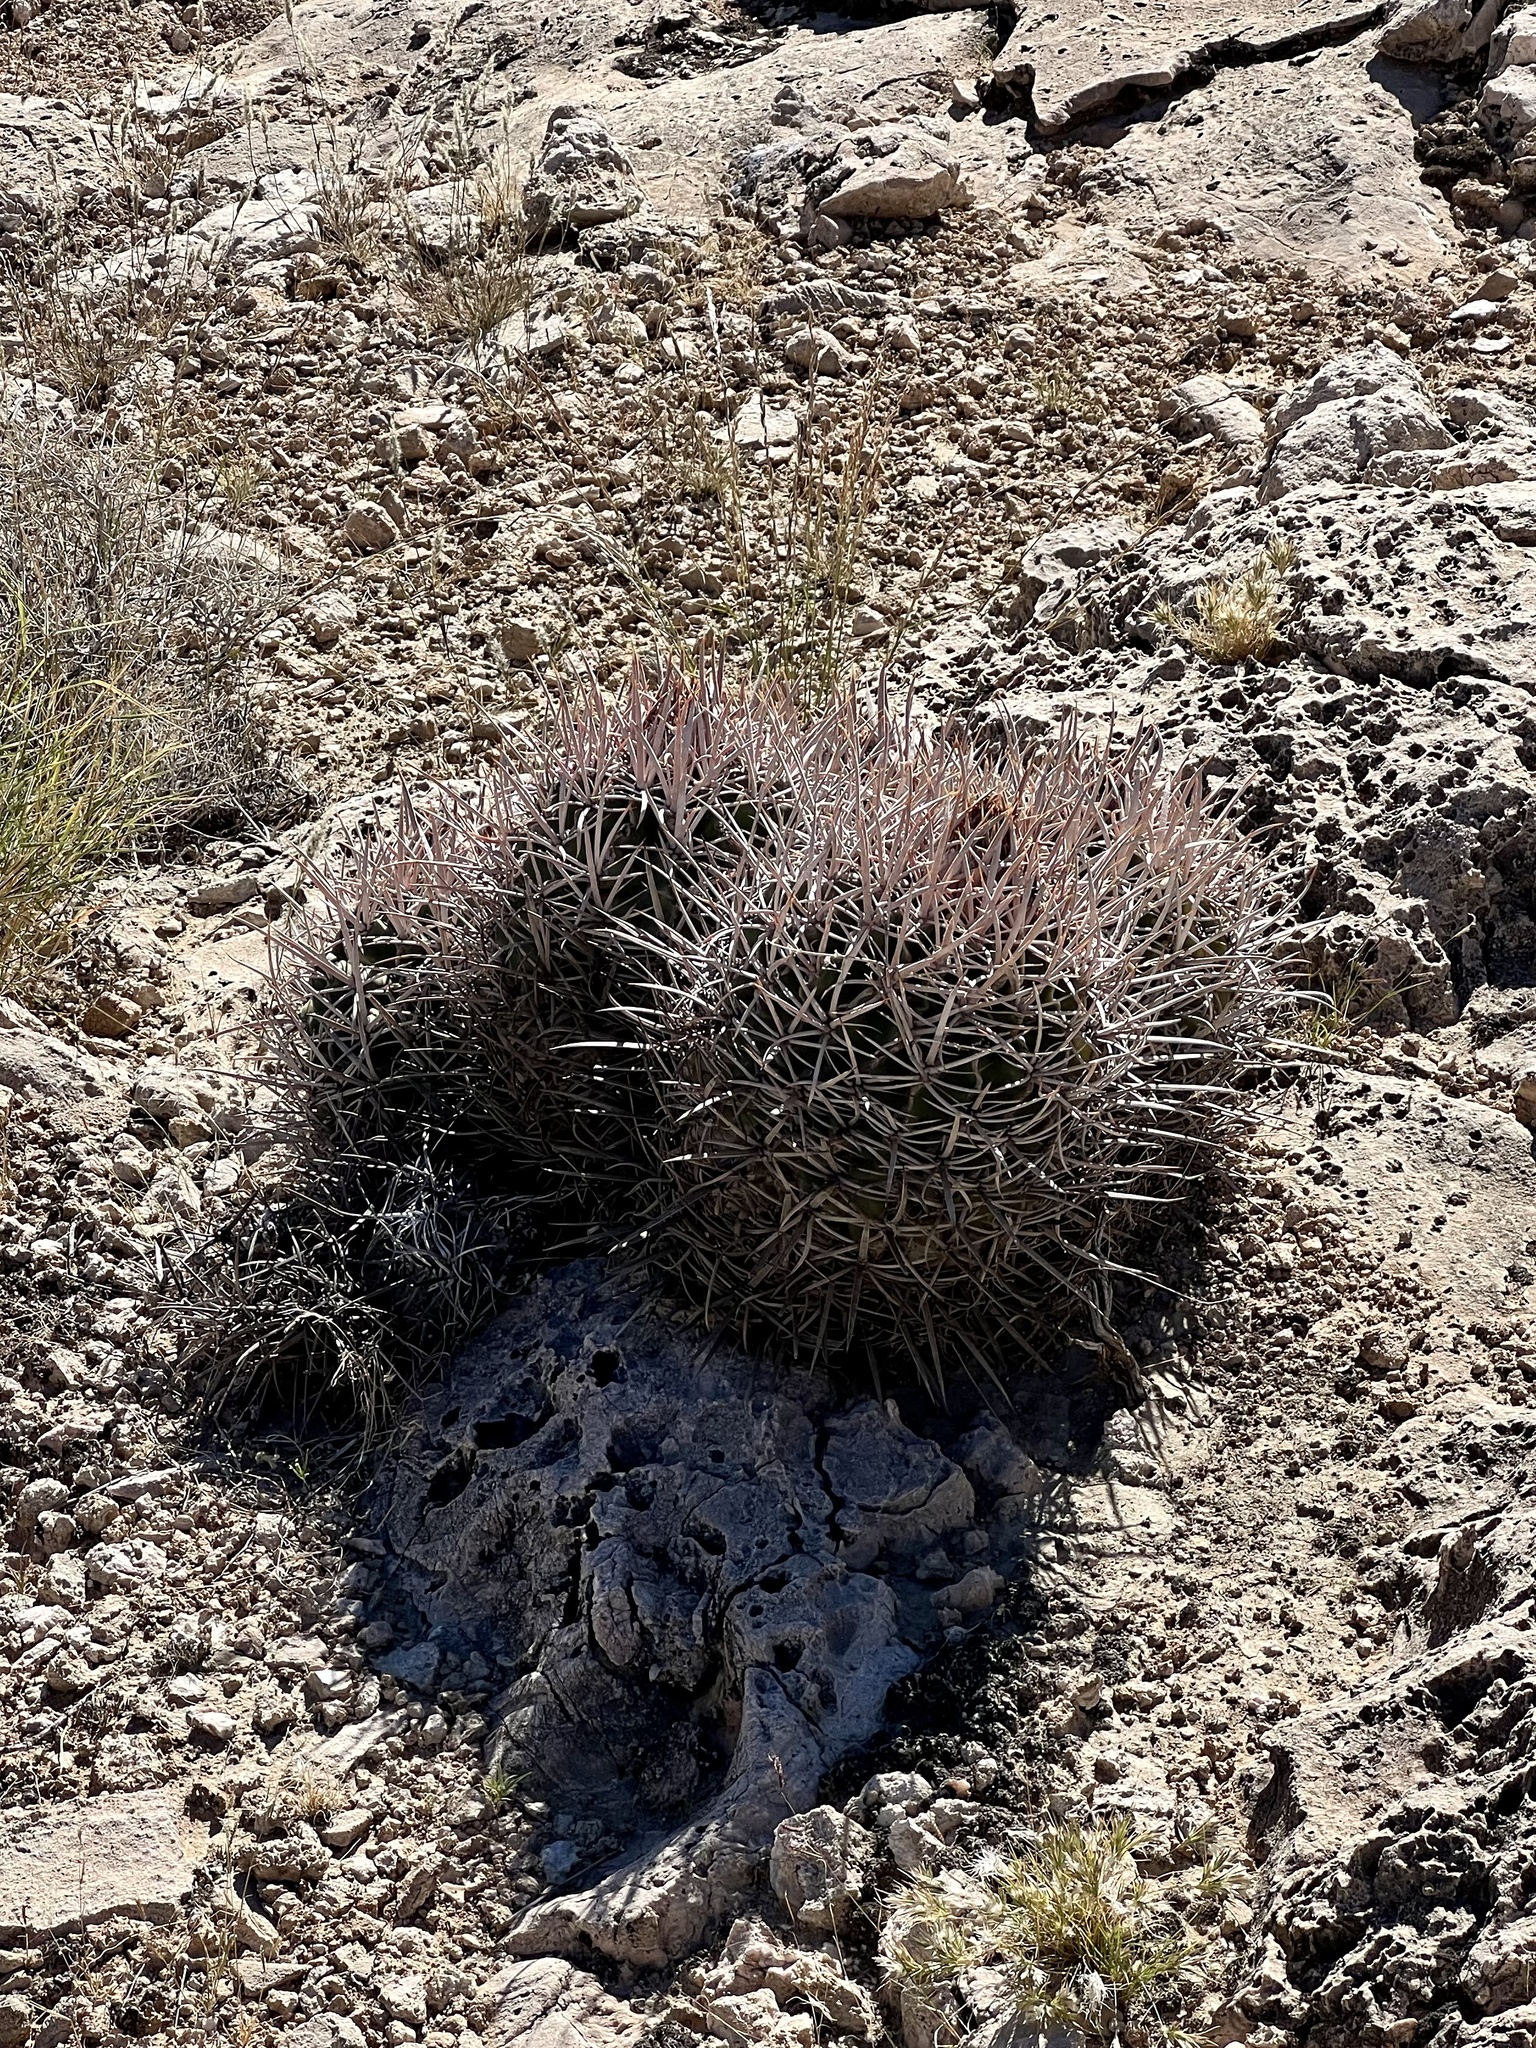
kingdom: Plantae
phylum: Tracheophyta
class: Magnoliopsida
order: Caryophyllales
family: Cactaceae
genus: Echinocactus
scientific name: Echinocactus polycephalus
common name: Cottontop cactus
